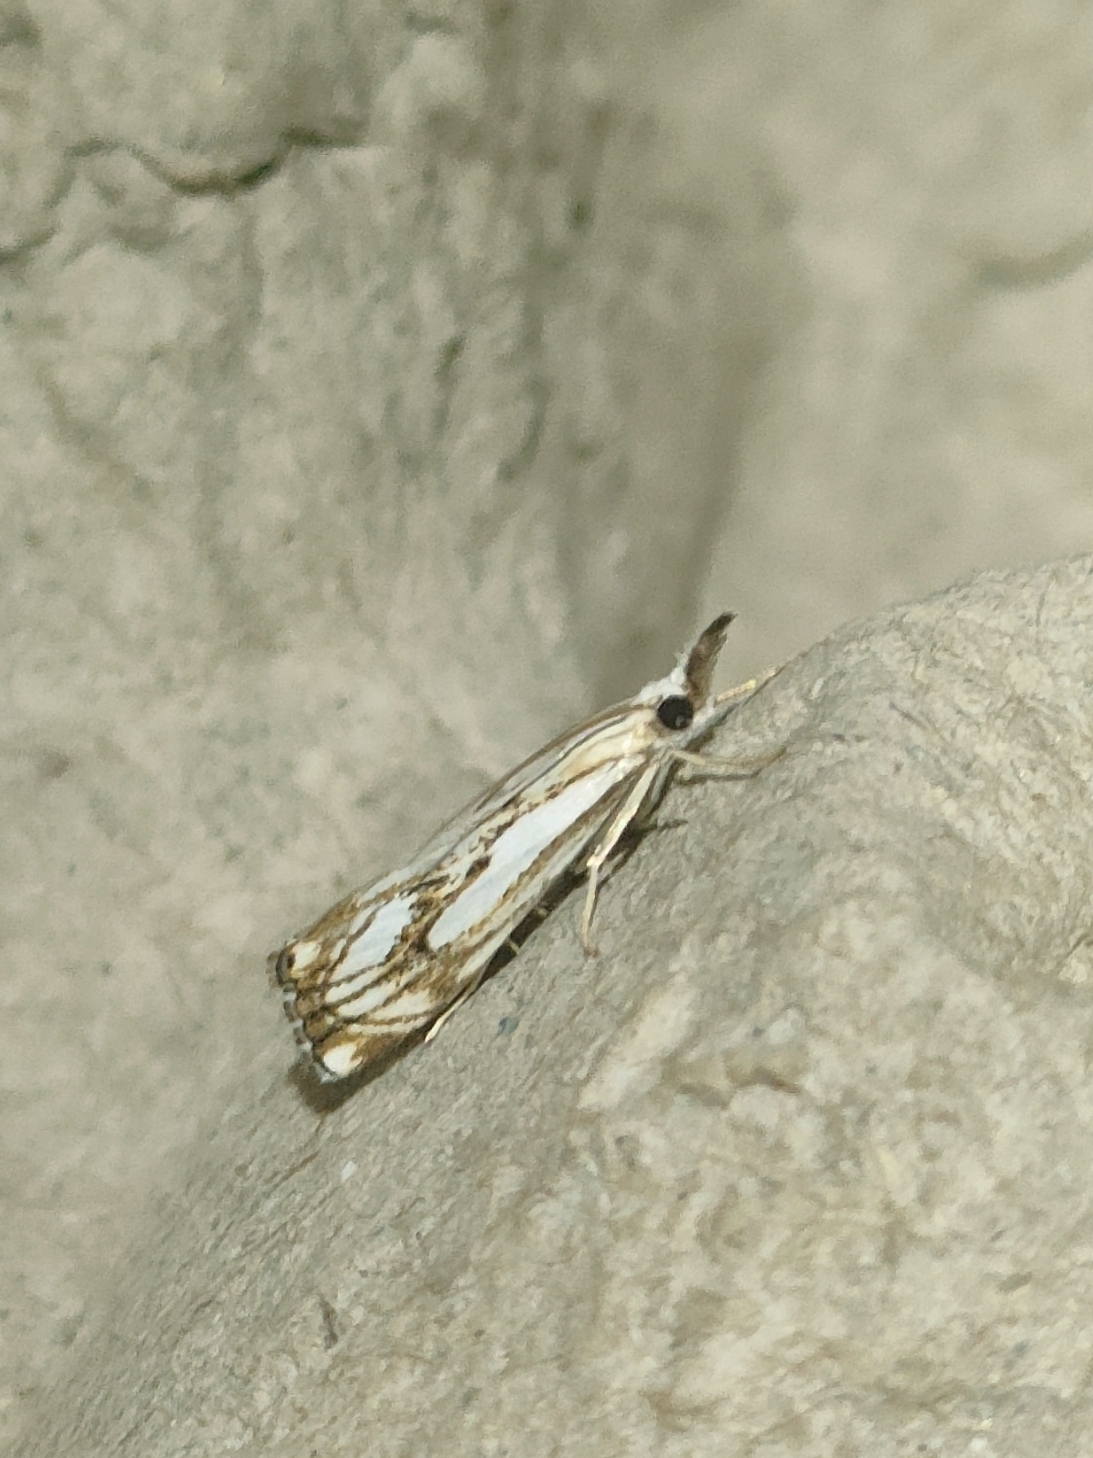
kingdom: Animalia
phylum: Arthropoda
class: Insecta
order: Lepidoptera
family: Crambidae
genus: Catoptria
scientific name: Catoptria falsella
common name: Chequered grass-veneer
